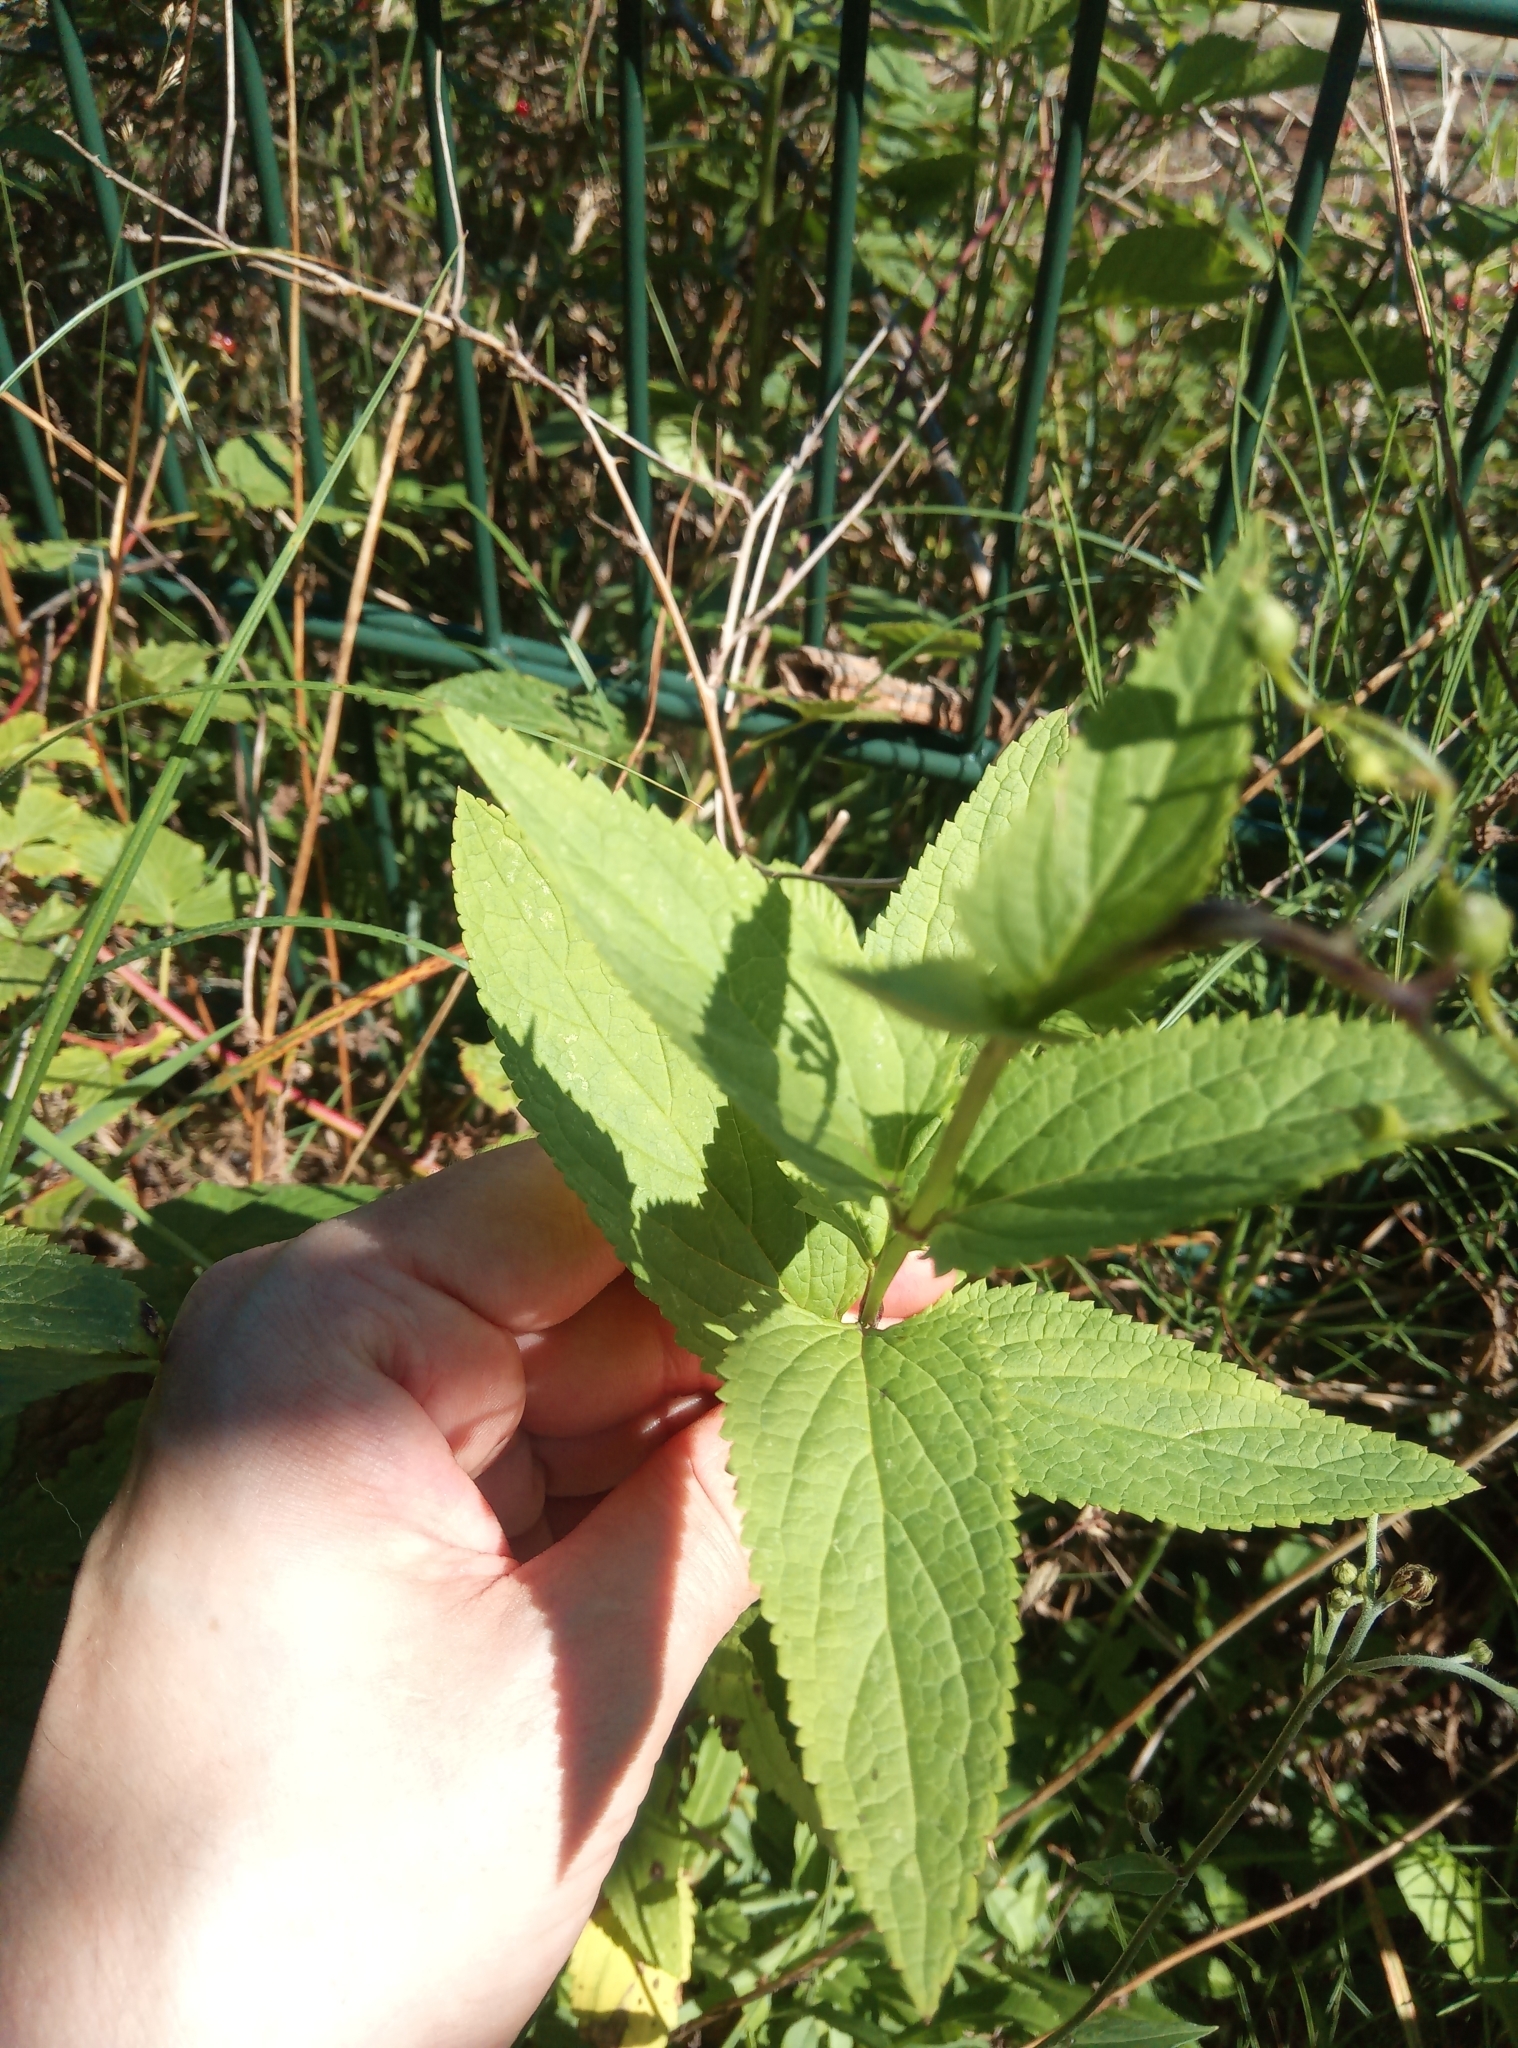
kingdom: Plantae
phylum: Tracheophyta
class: Magnoliopsida
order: Lamiales
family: Scrophulariaceae
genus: Scrophularia
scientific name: Scrophularia nodosa
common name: Common figwort
